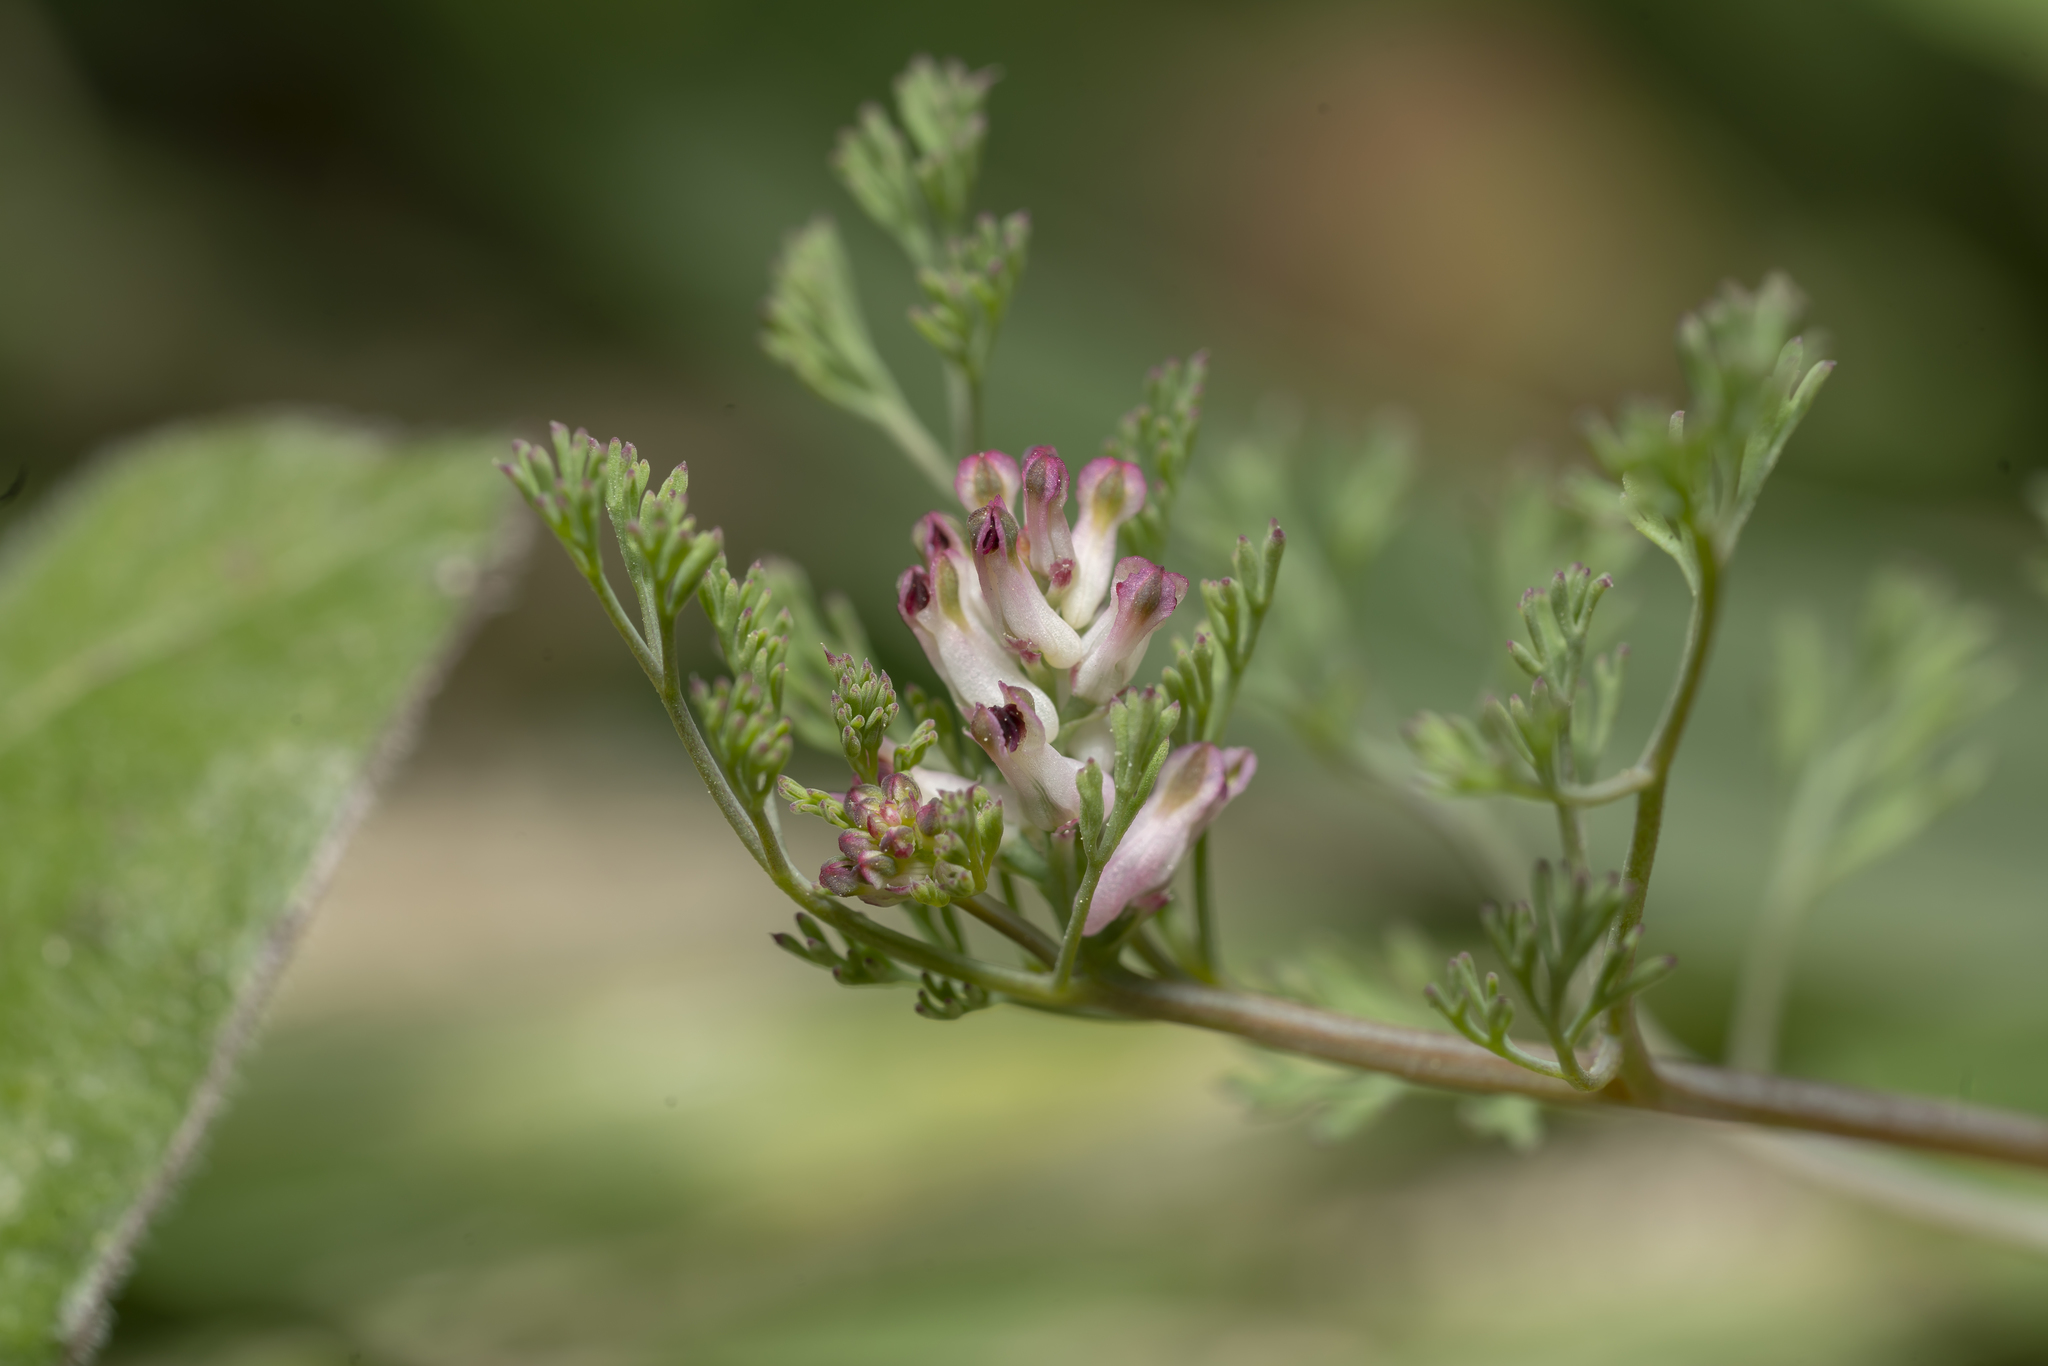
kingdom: Plantae
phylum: Tracheophyta
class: Magnoliopsida
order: Ranunculales
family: Papaveraceae
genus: Fumaria
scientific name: Fumaria parviflora
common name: Fine-leaved fumitory
